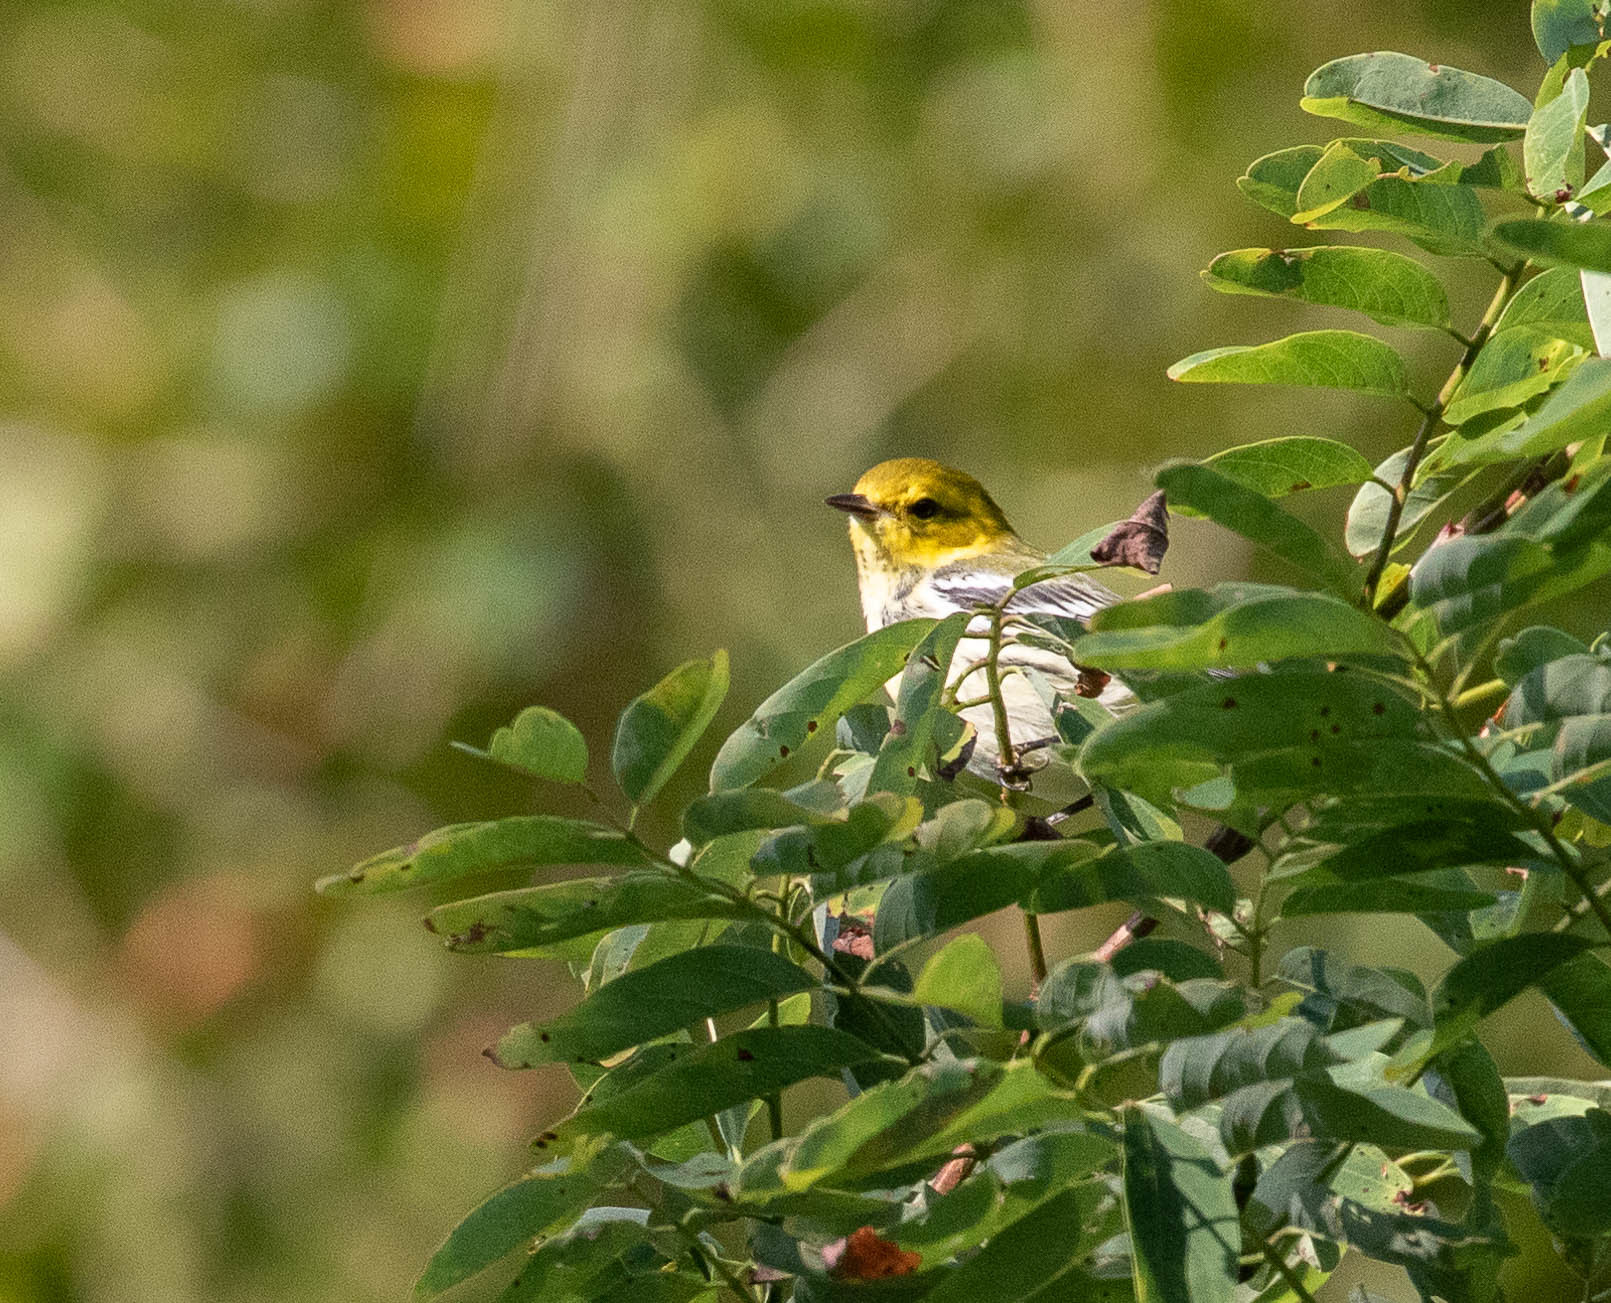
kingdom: Animalia
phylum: Chordata
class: Aves
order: Passeriformes
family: Parulidae
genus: Setophaga
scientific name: Setophaga virens
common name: Black-throated green warbler
